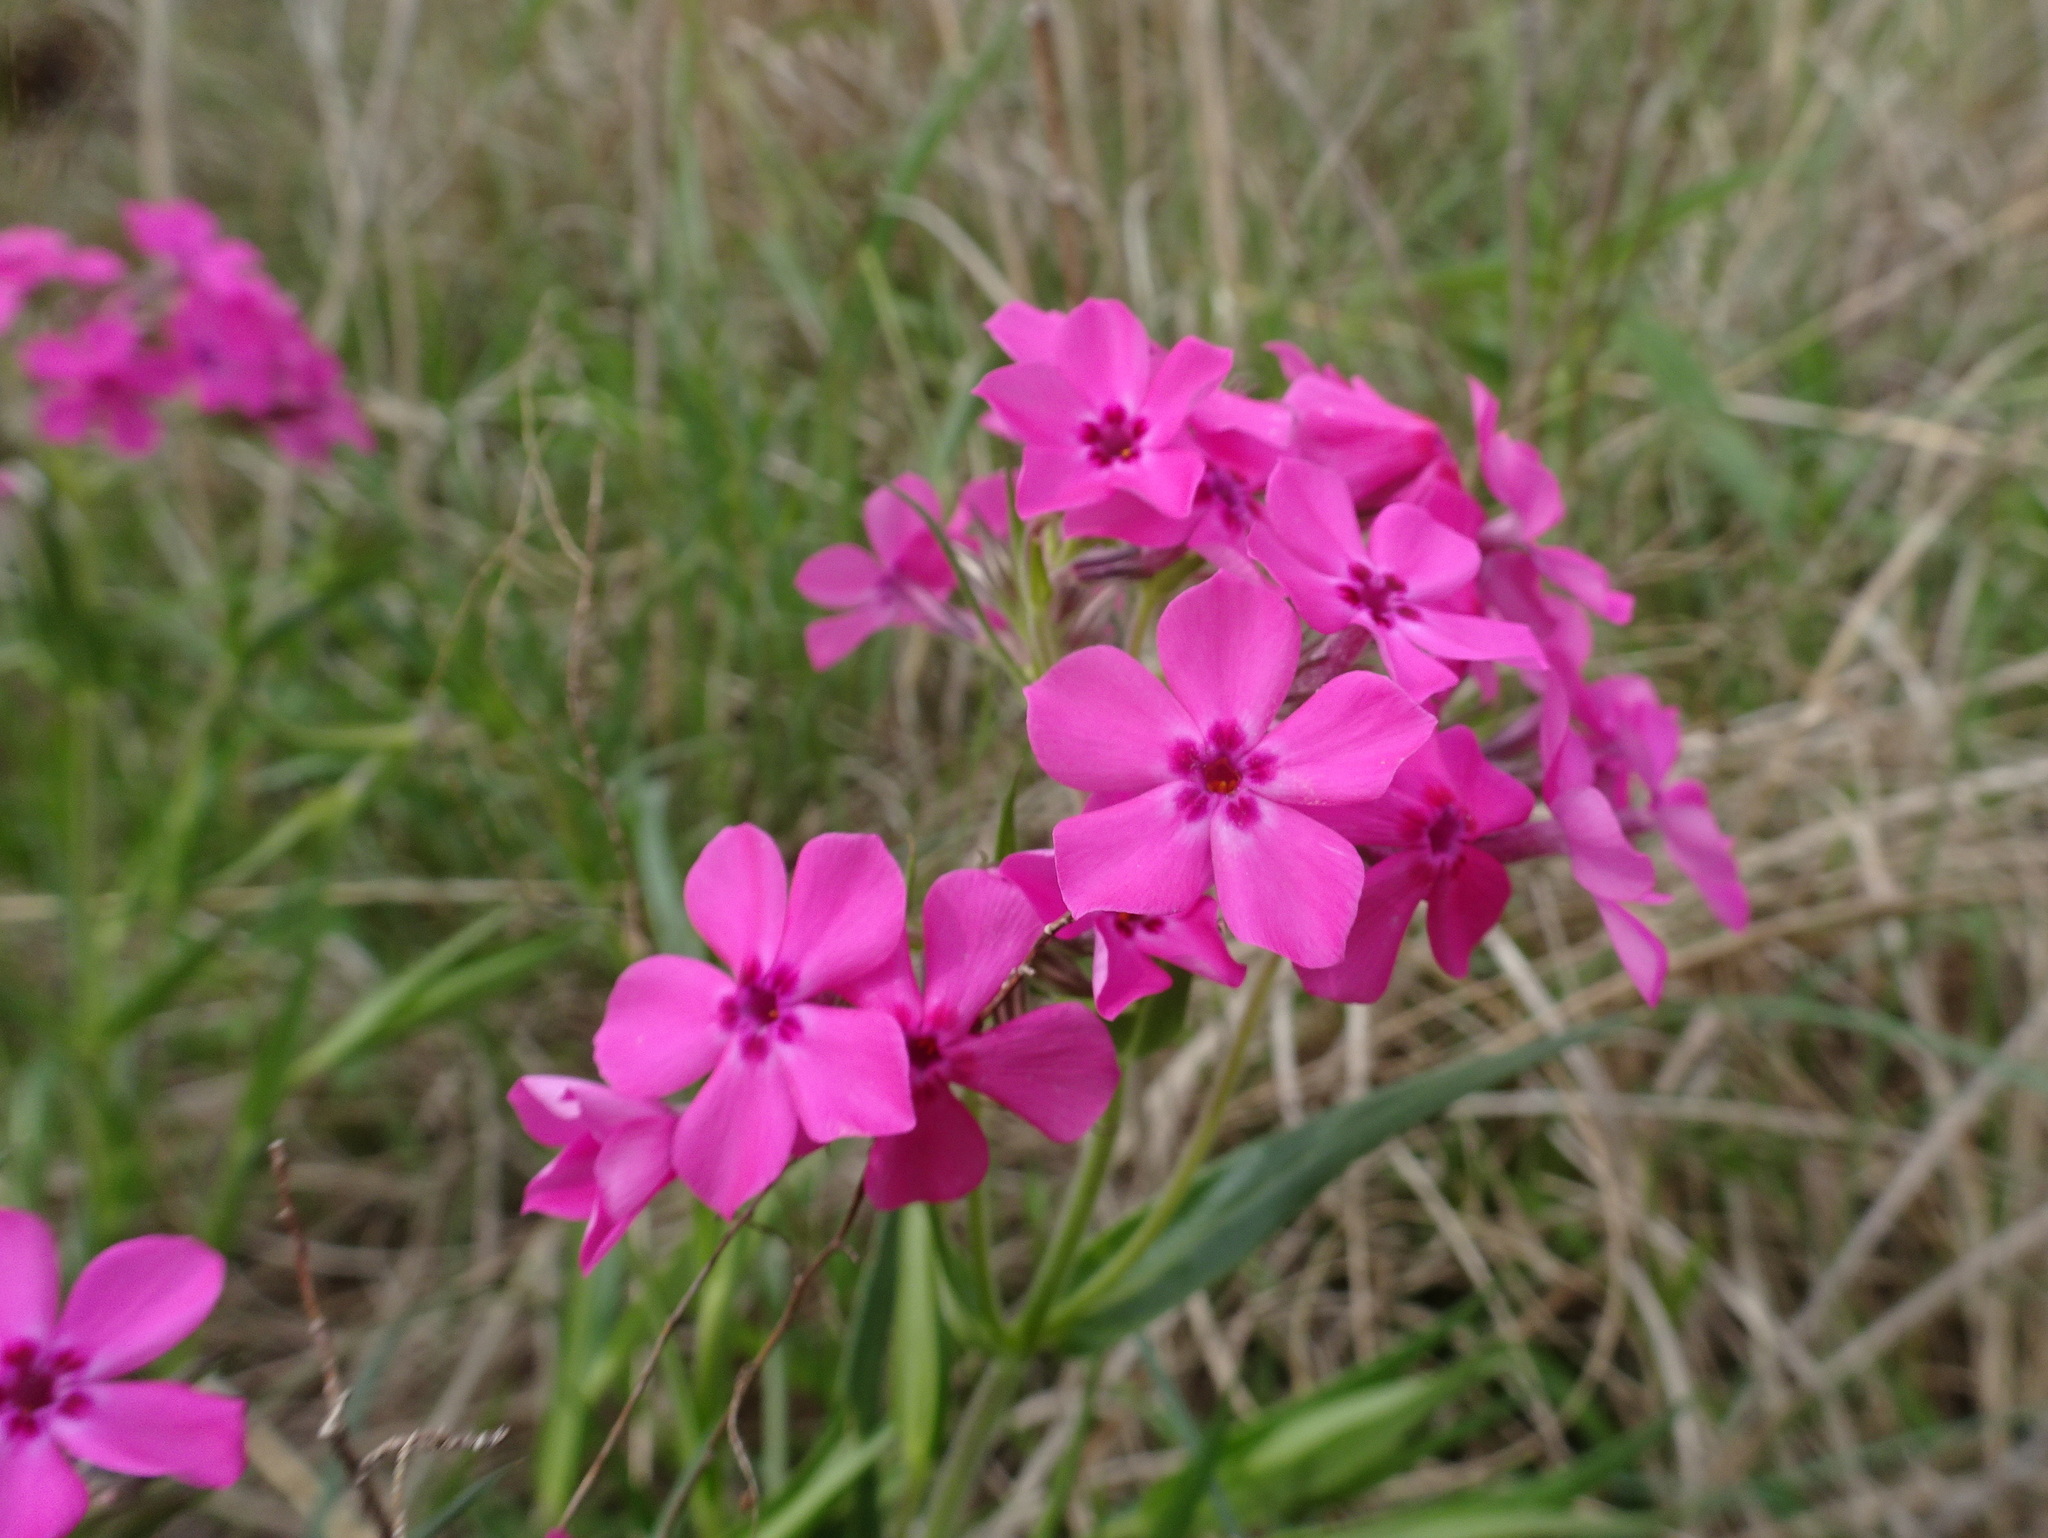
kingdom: Plantae
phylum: Tracheophyta
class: Magnoliopsida
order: Ericales
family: Polemoniaceae
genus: Phlox
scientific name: Phlox pilosa
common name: Prairie phlox
